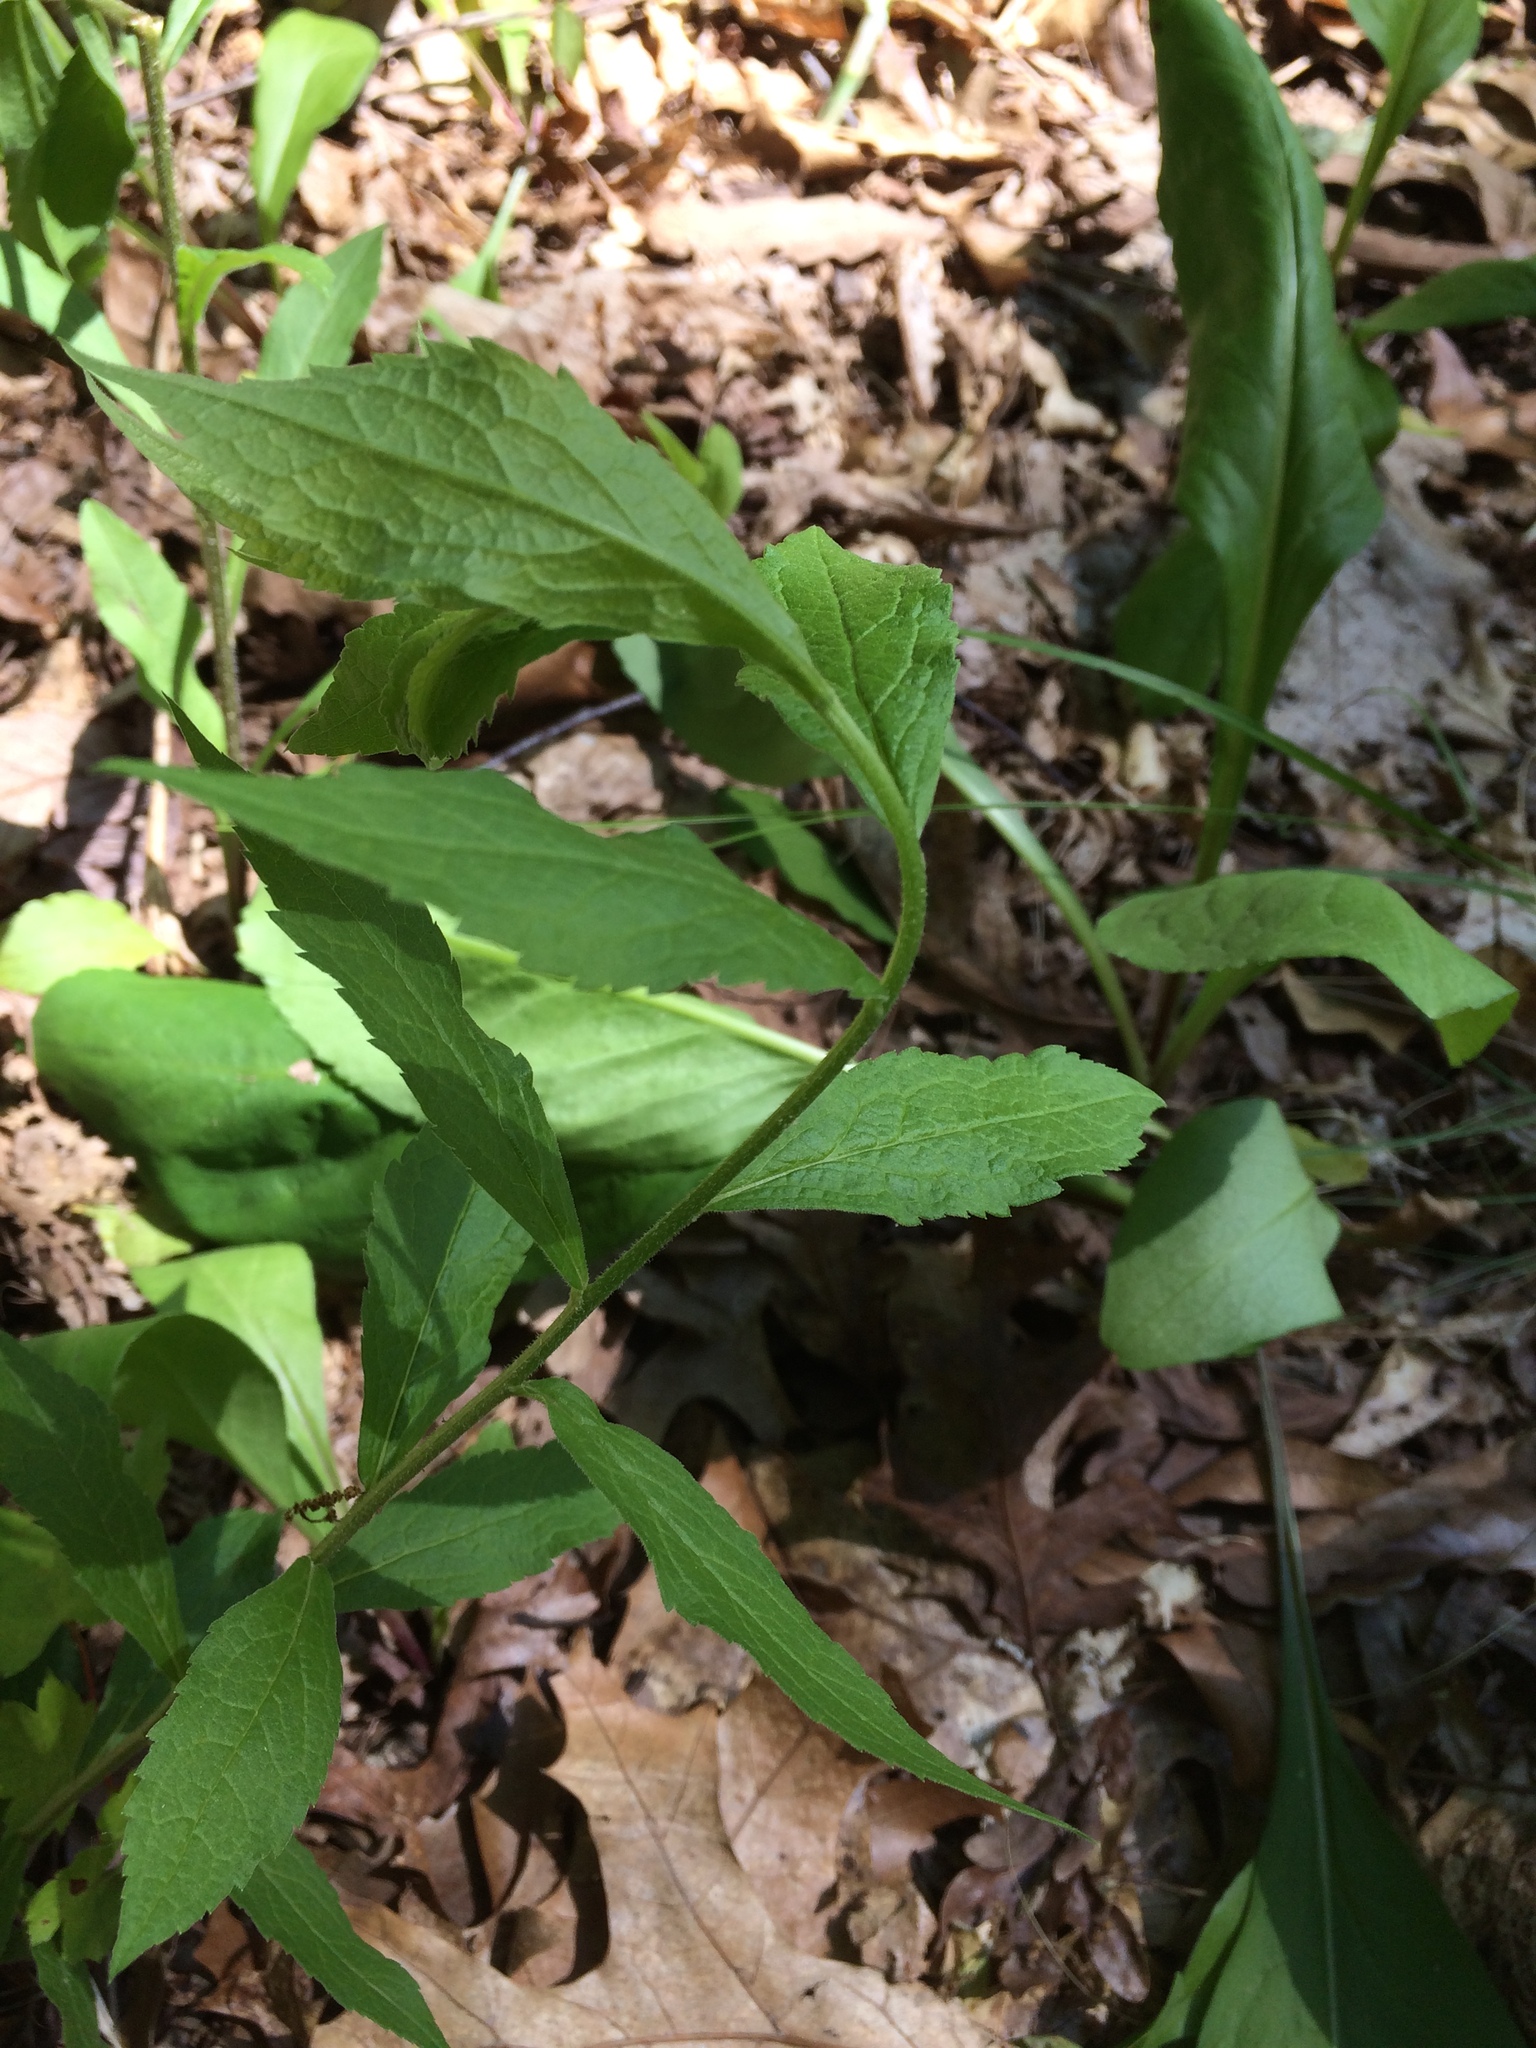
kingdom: Plantae
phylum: Tracheophyta
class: Magnoliopsida
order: Asterales
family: Asteraceae
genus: Solidago
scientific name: Solidago rugosa
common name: Rough-stemmed goldenrod
